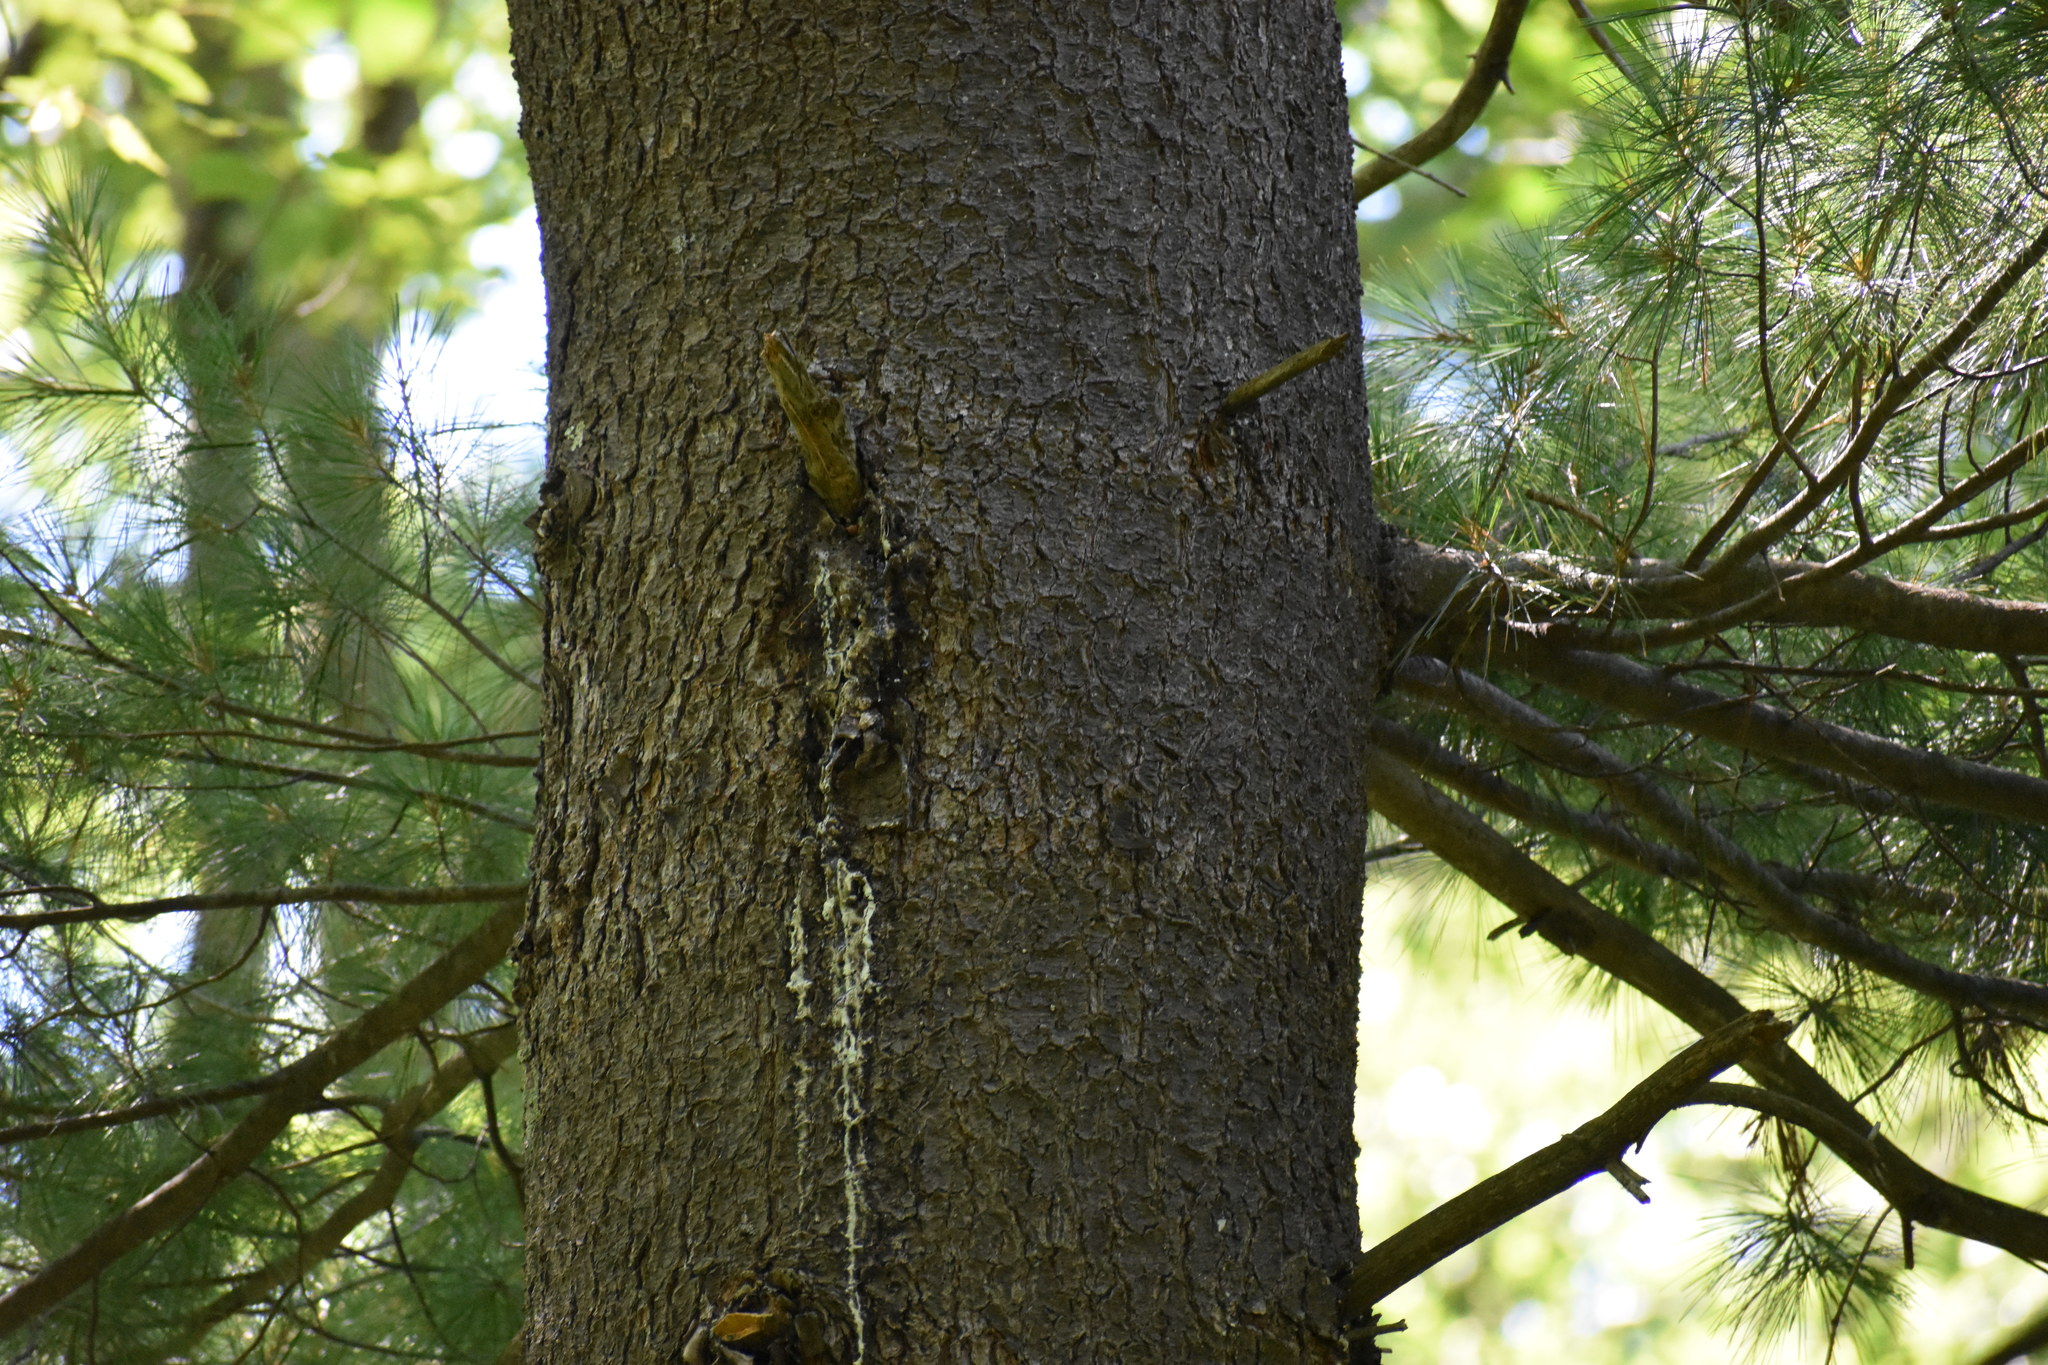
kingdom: Plantae
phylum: Tracheophyta
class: Pinopsida
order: Pinales
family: Pinaceae
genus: Pinus
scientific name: Pinus strobus
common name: Weymouth pine
